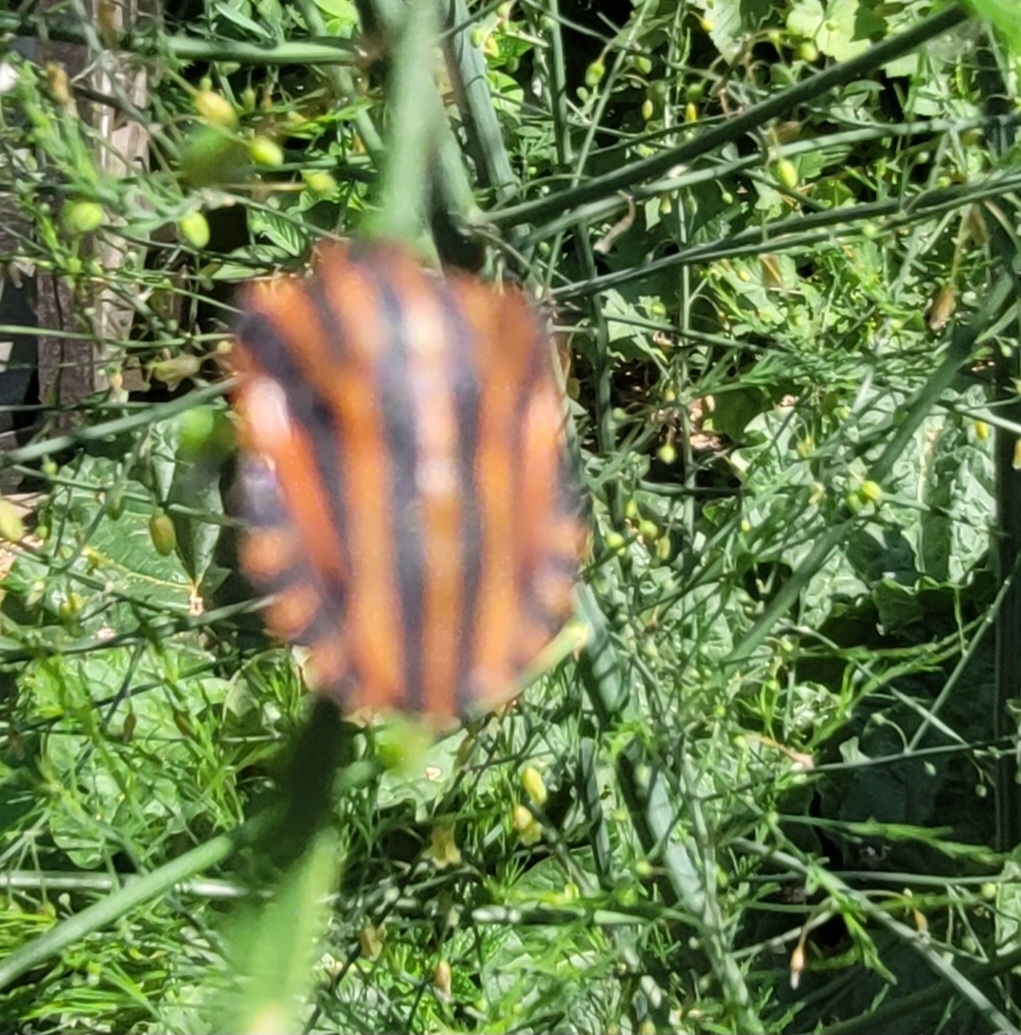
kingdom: Animalia
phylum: Arthropoda
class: Insecta
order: Hemiptera
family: Pentatomidae
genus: Graphosoma
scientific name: Graphosoma italicum
